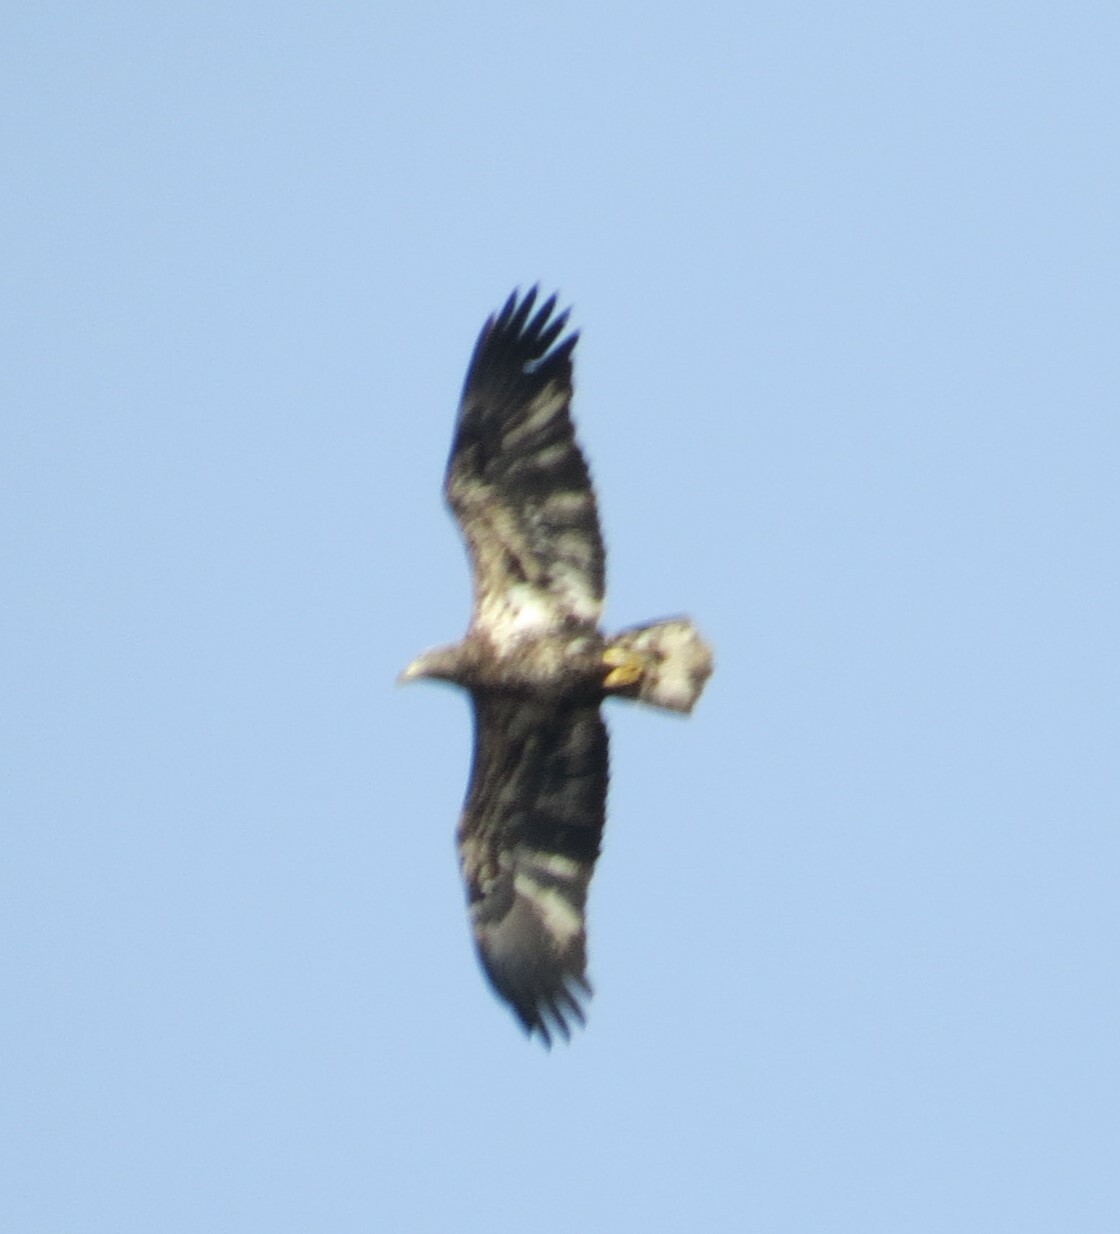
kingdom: Animalia
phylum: Chordata
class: Aves
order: Accipitriformes
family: Accipitridae
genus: Haliaeetus
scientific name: Haliaeetus leucocephalus
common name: Bald eagle
